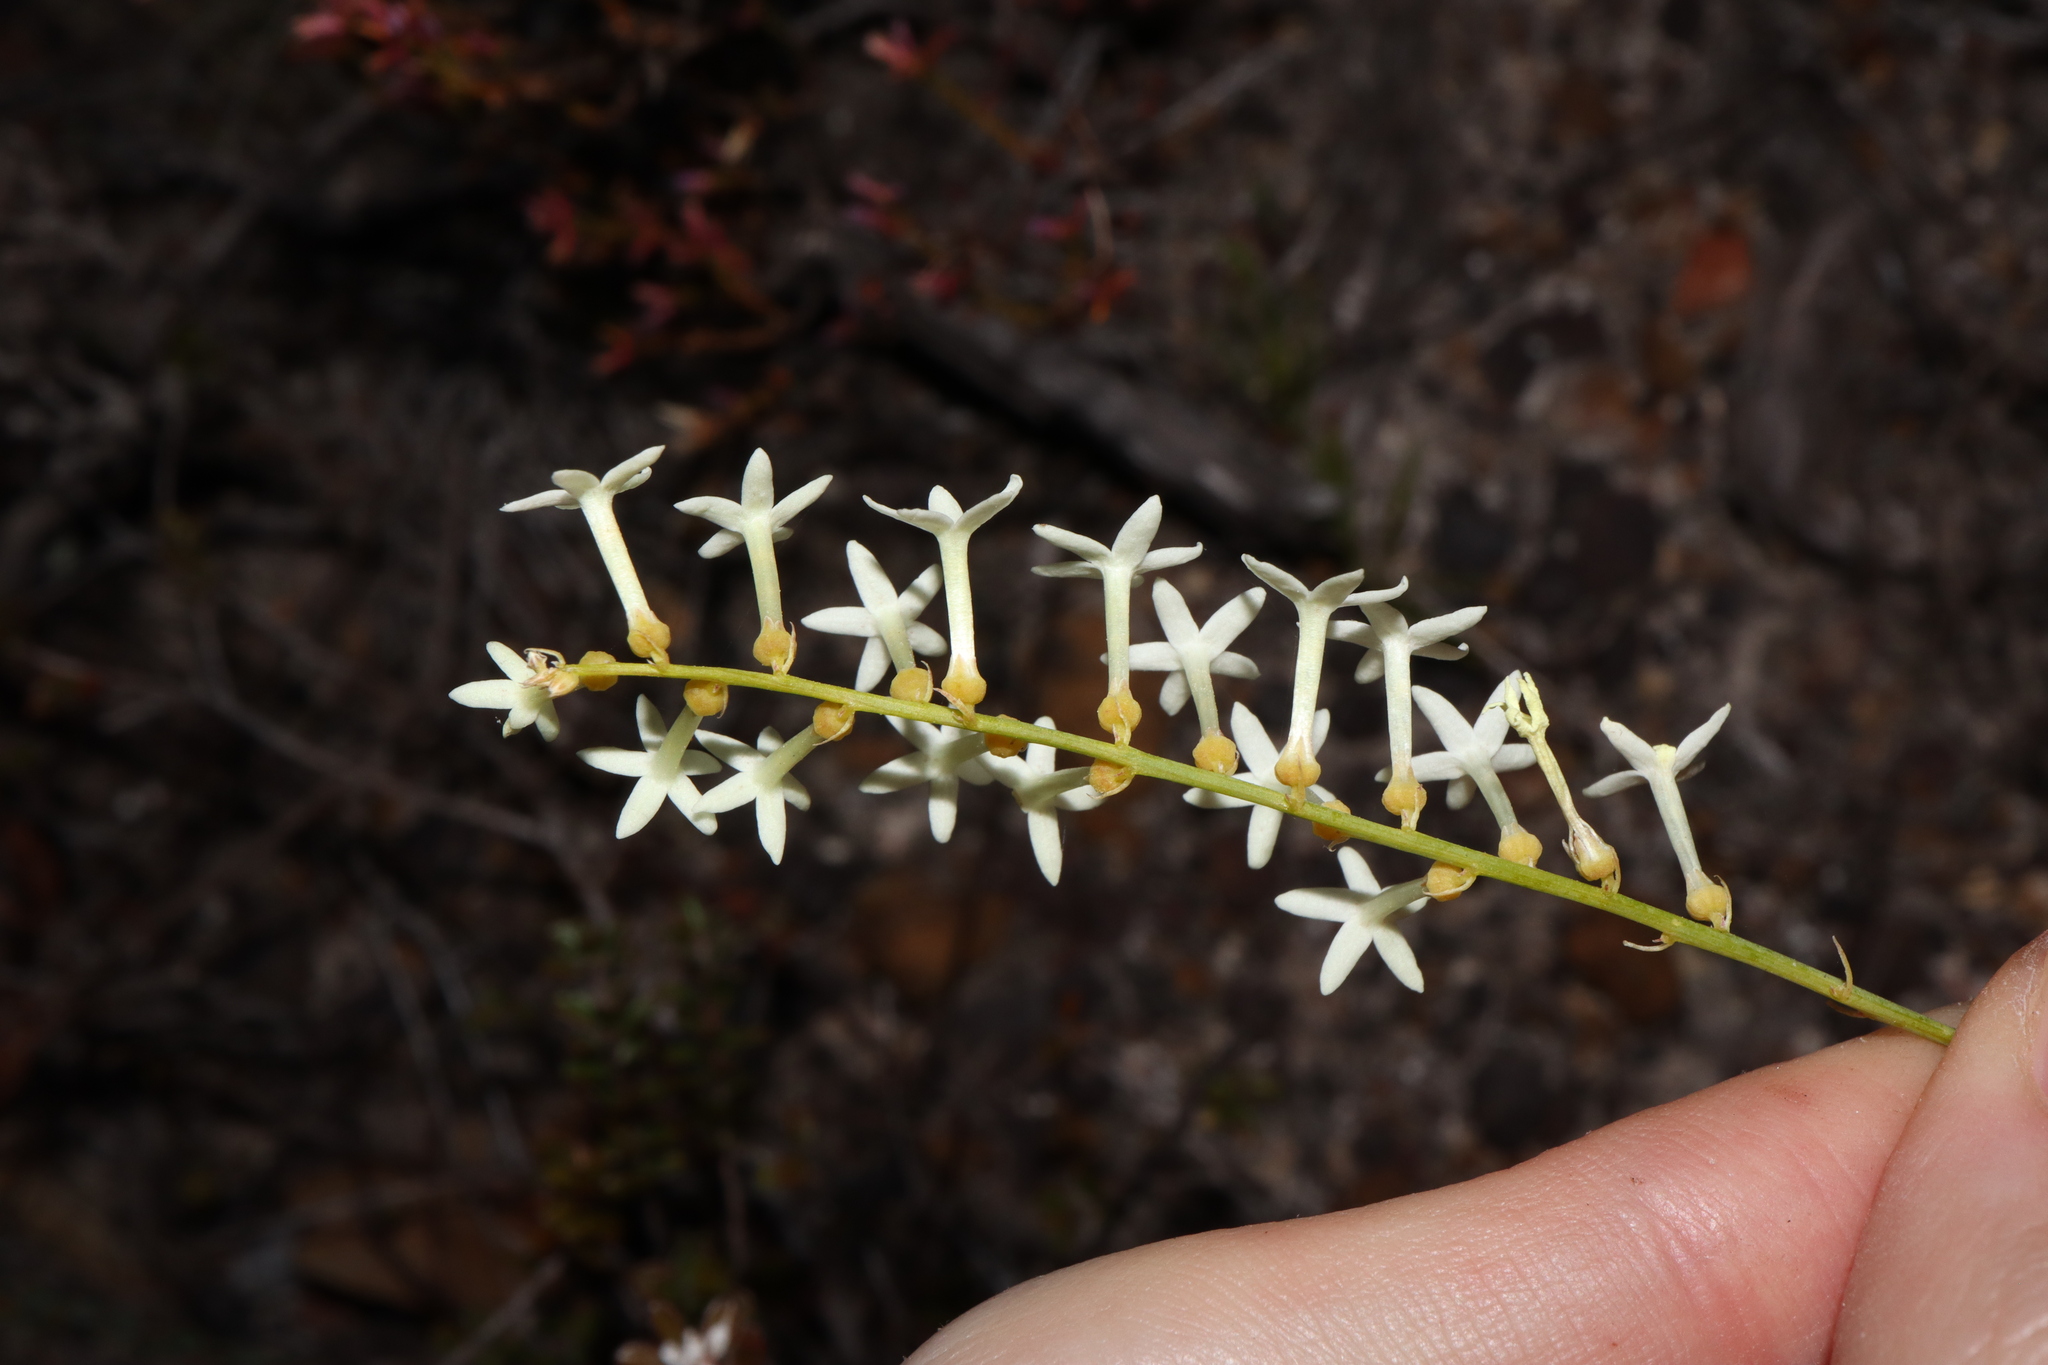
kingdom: Plantae
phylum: Tracheophyta
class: Magnoliopsida
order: Celastrales
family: Celastraceae
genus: Stackhousia
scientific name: Stackhousia monogyna
